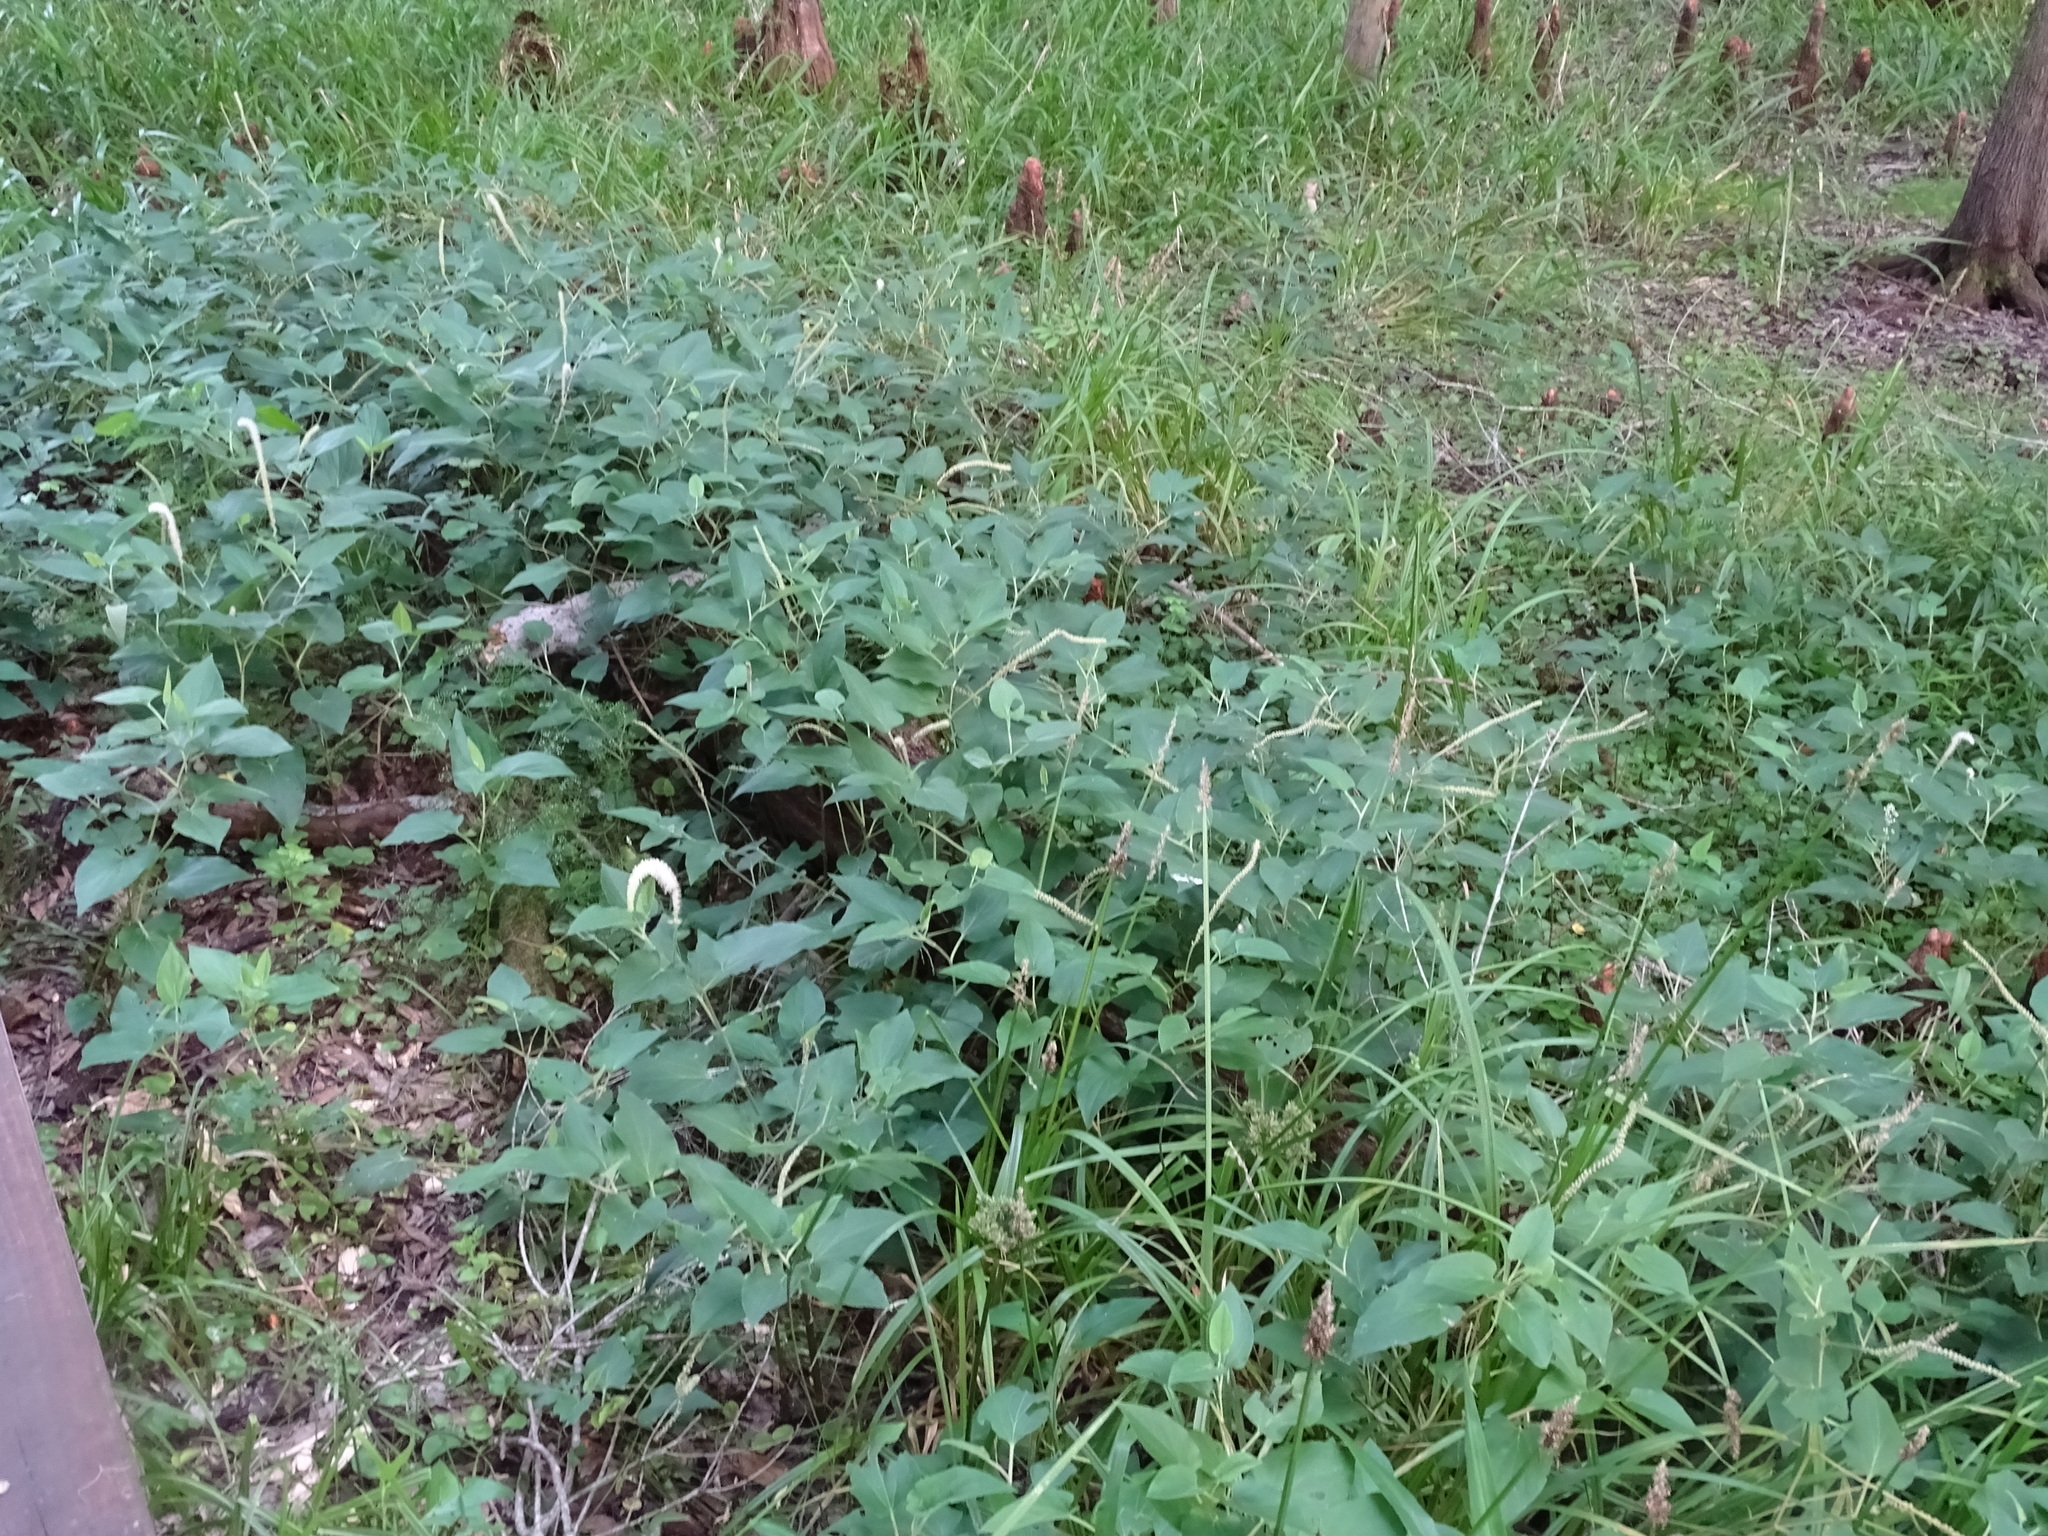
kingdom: Plantae
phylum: Tracheophyta
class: Magnoliopsida
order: Piperales
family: Saururaceae
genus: Saururus
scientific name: Saururus cernuus
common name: Lizard's-tail
